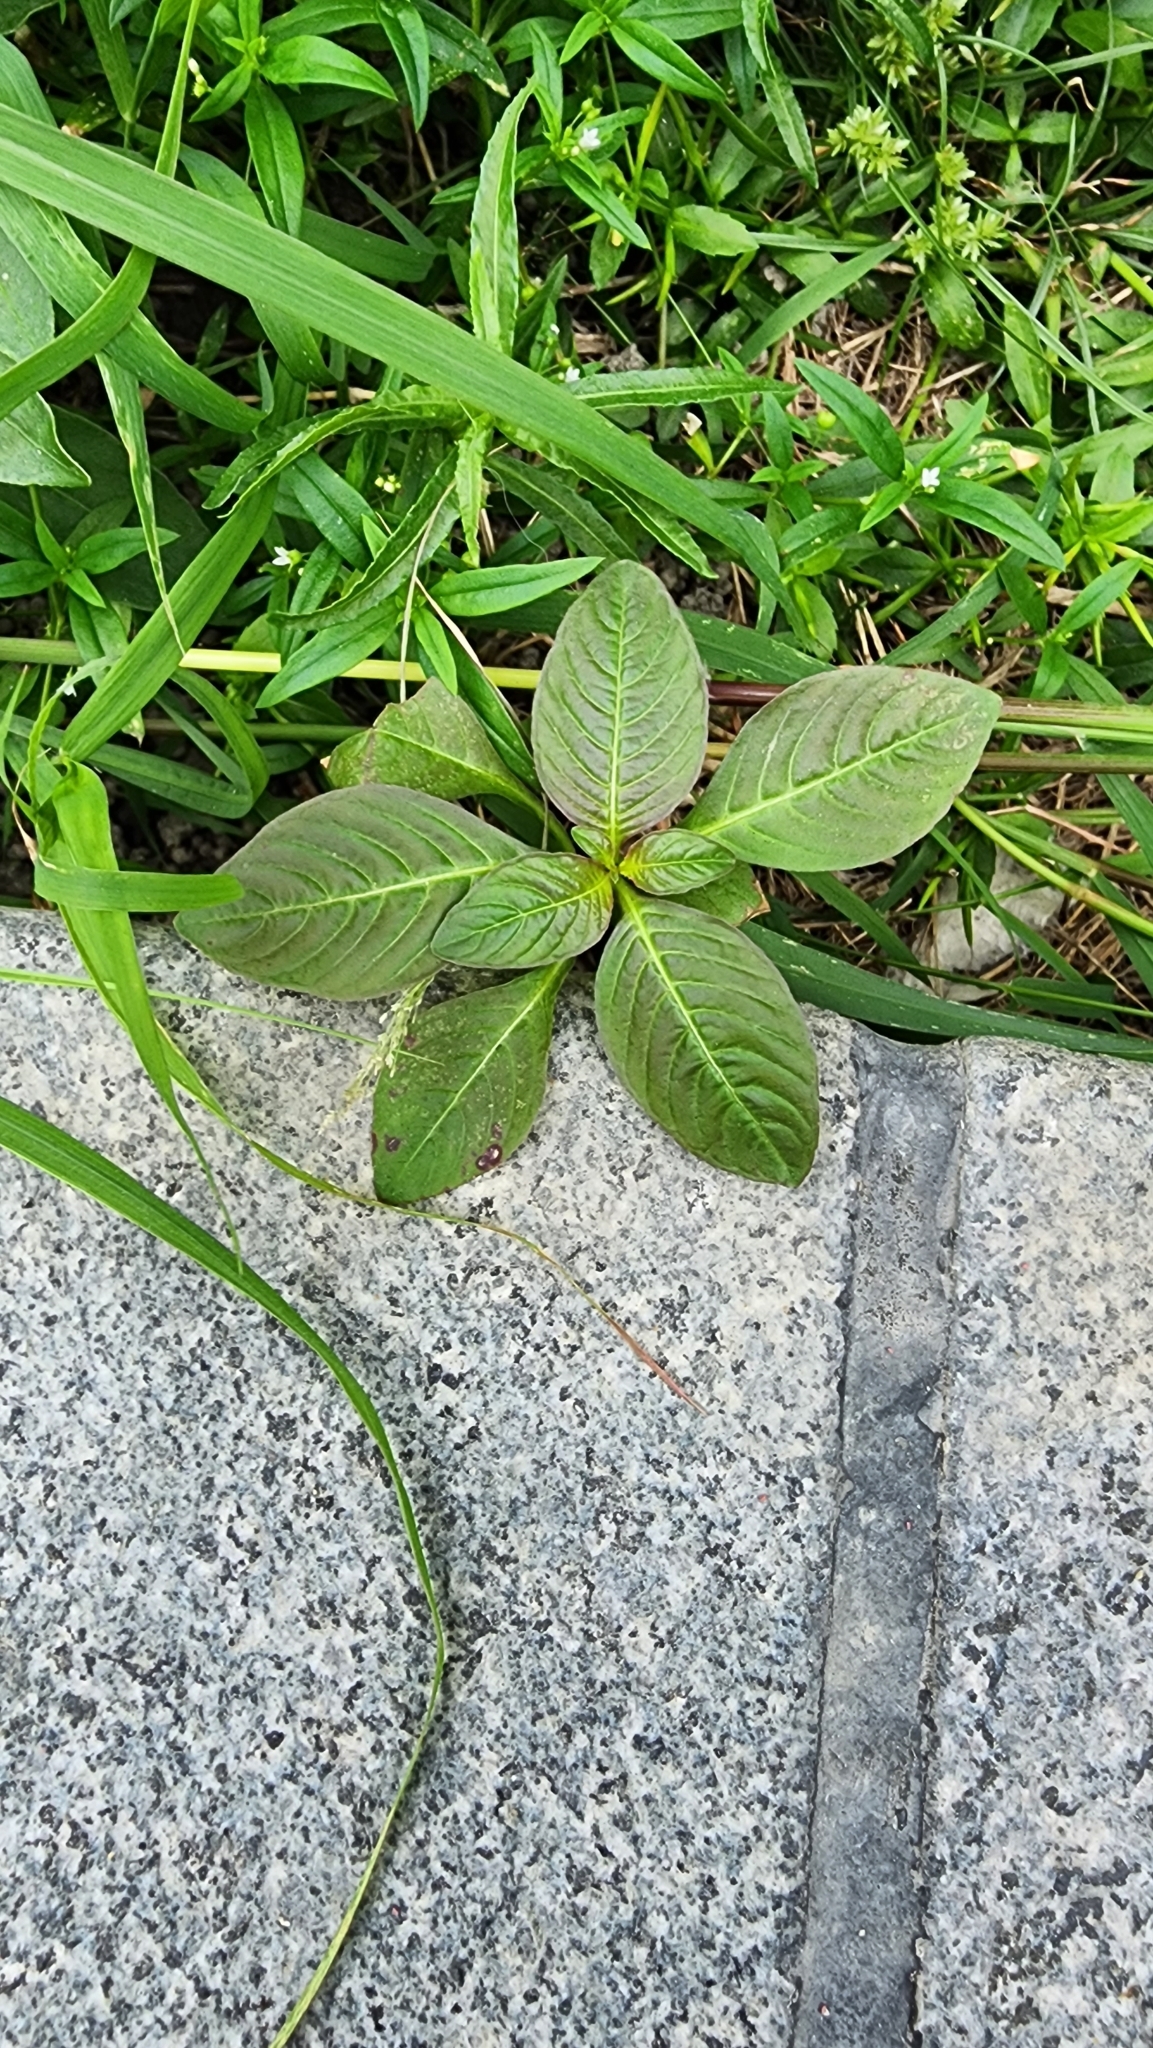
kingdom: Plantae
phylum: Tracheophyta
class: Magnoliopsida
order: Malpighiales
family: Euphorbiaceae
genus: Euphorbia
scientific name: Euphorbia heterophylla
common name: Mexican fireplant
